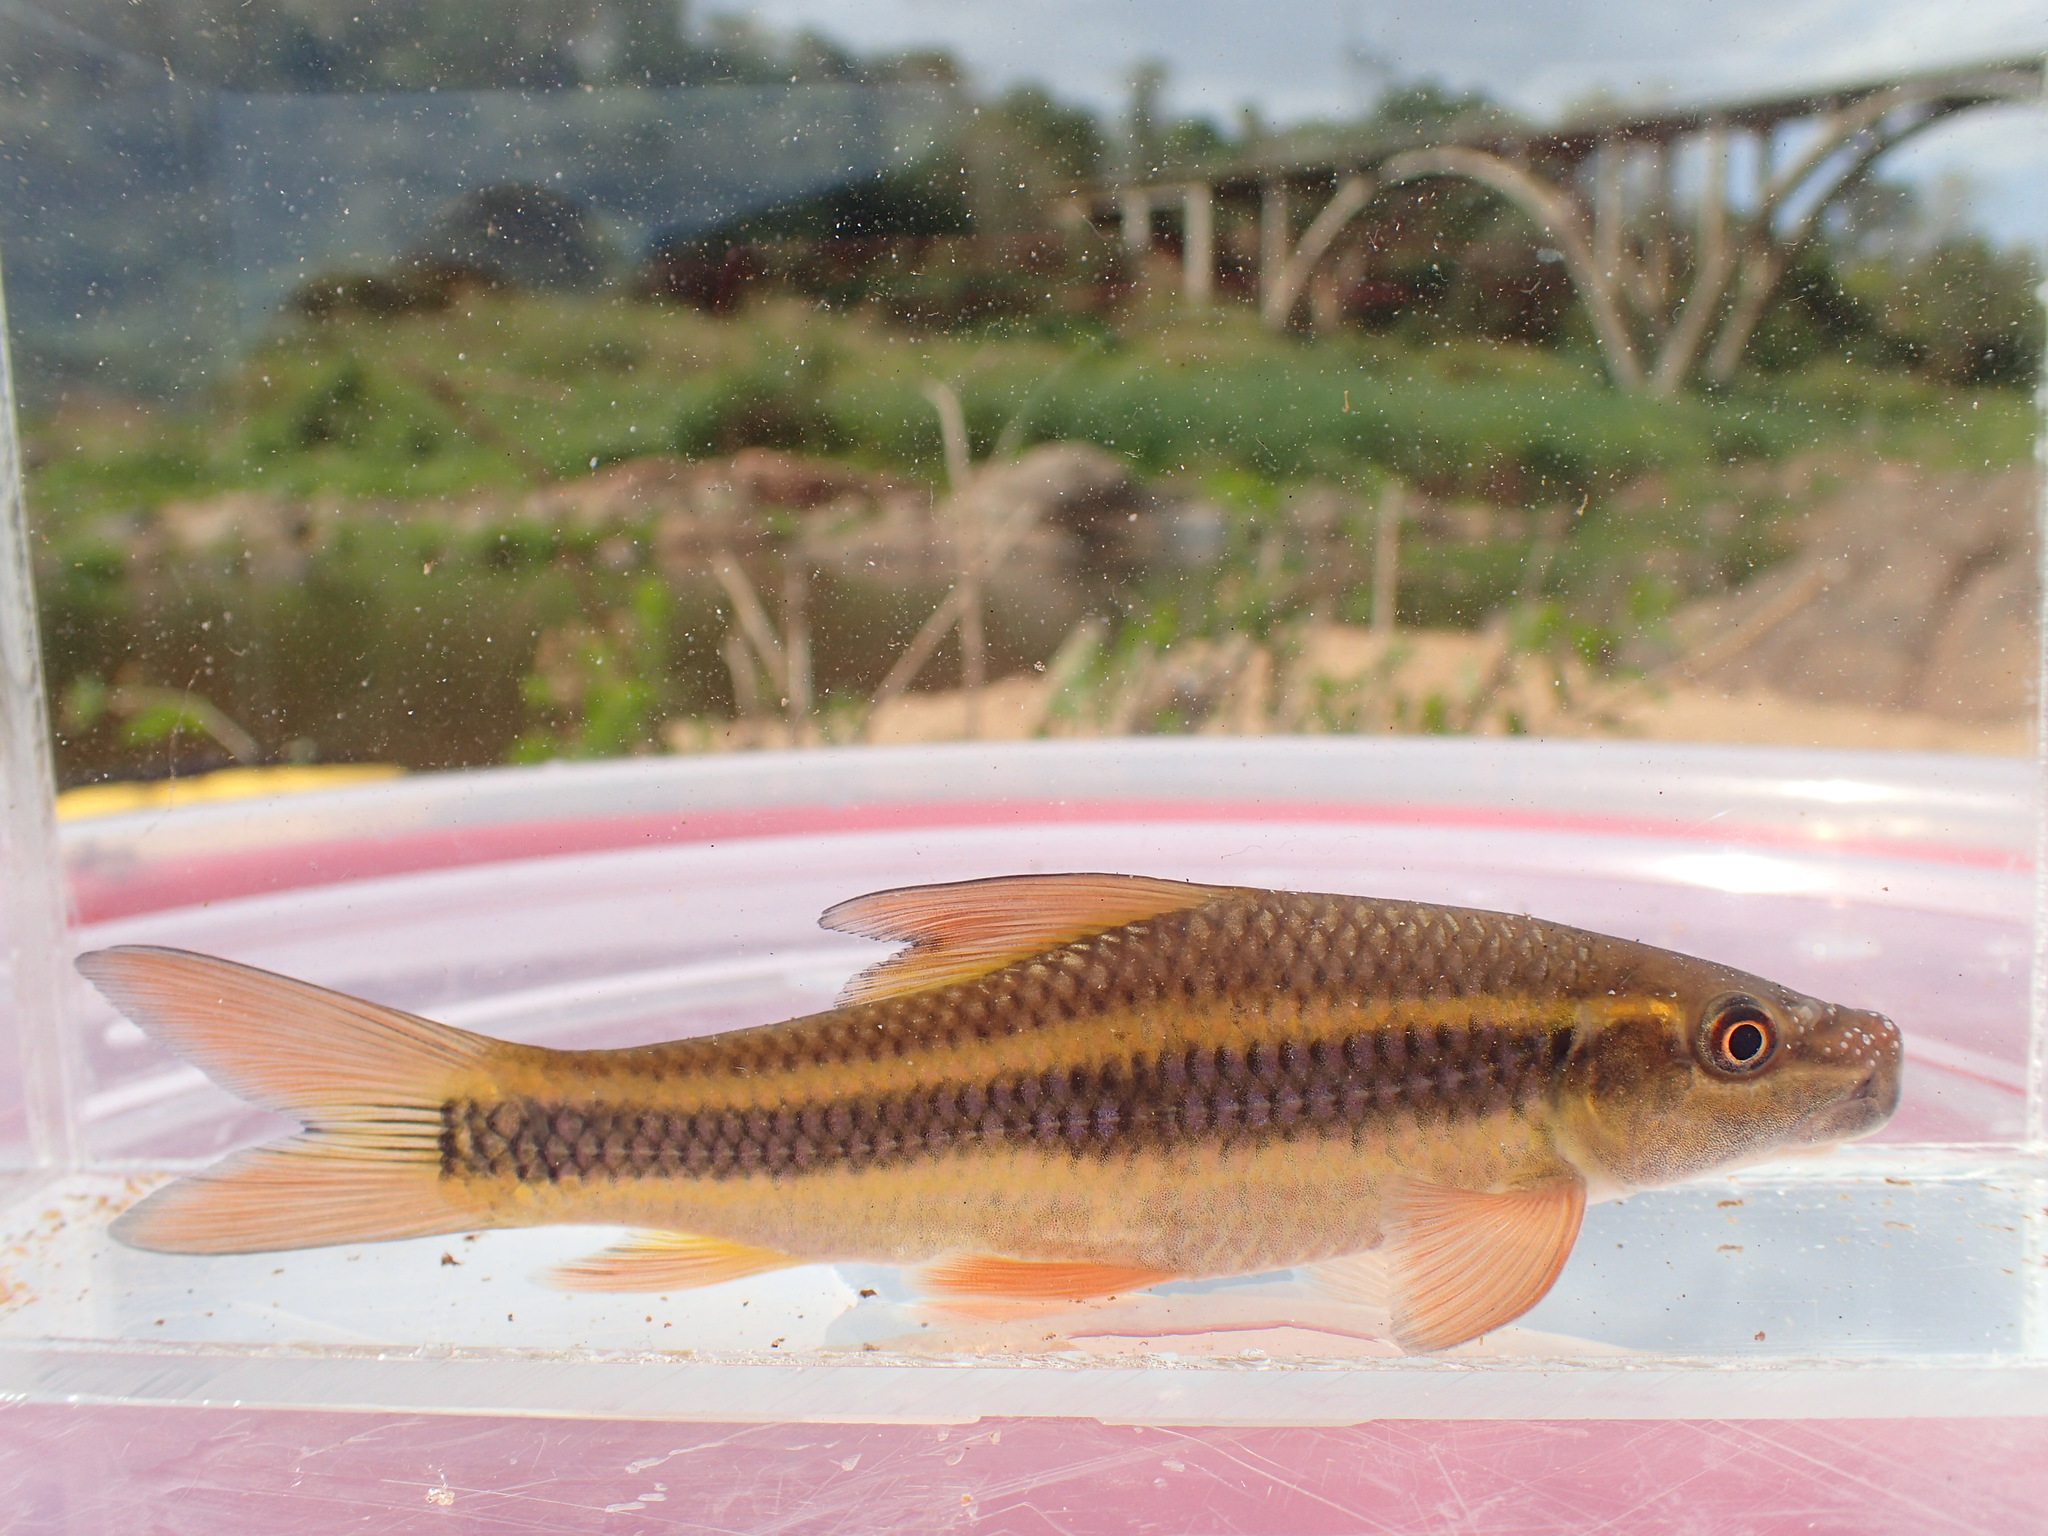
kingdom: Animalia
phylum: Chordata
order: Cypriniformes
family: Cyprinidae
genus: Labeo
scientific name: Labeo cylindricus
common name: Redeye labeo
